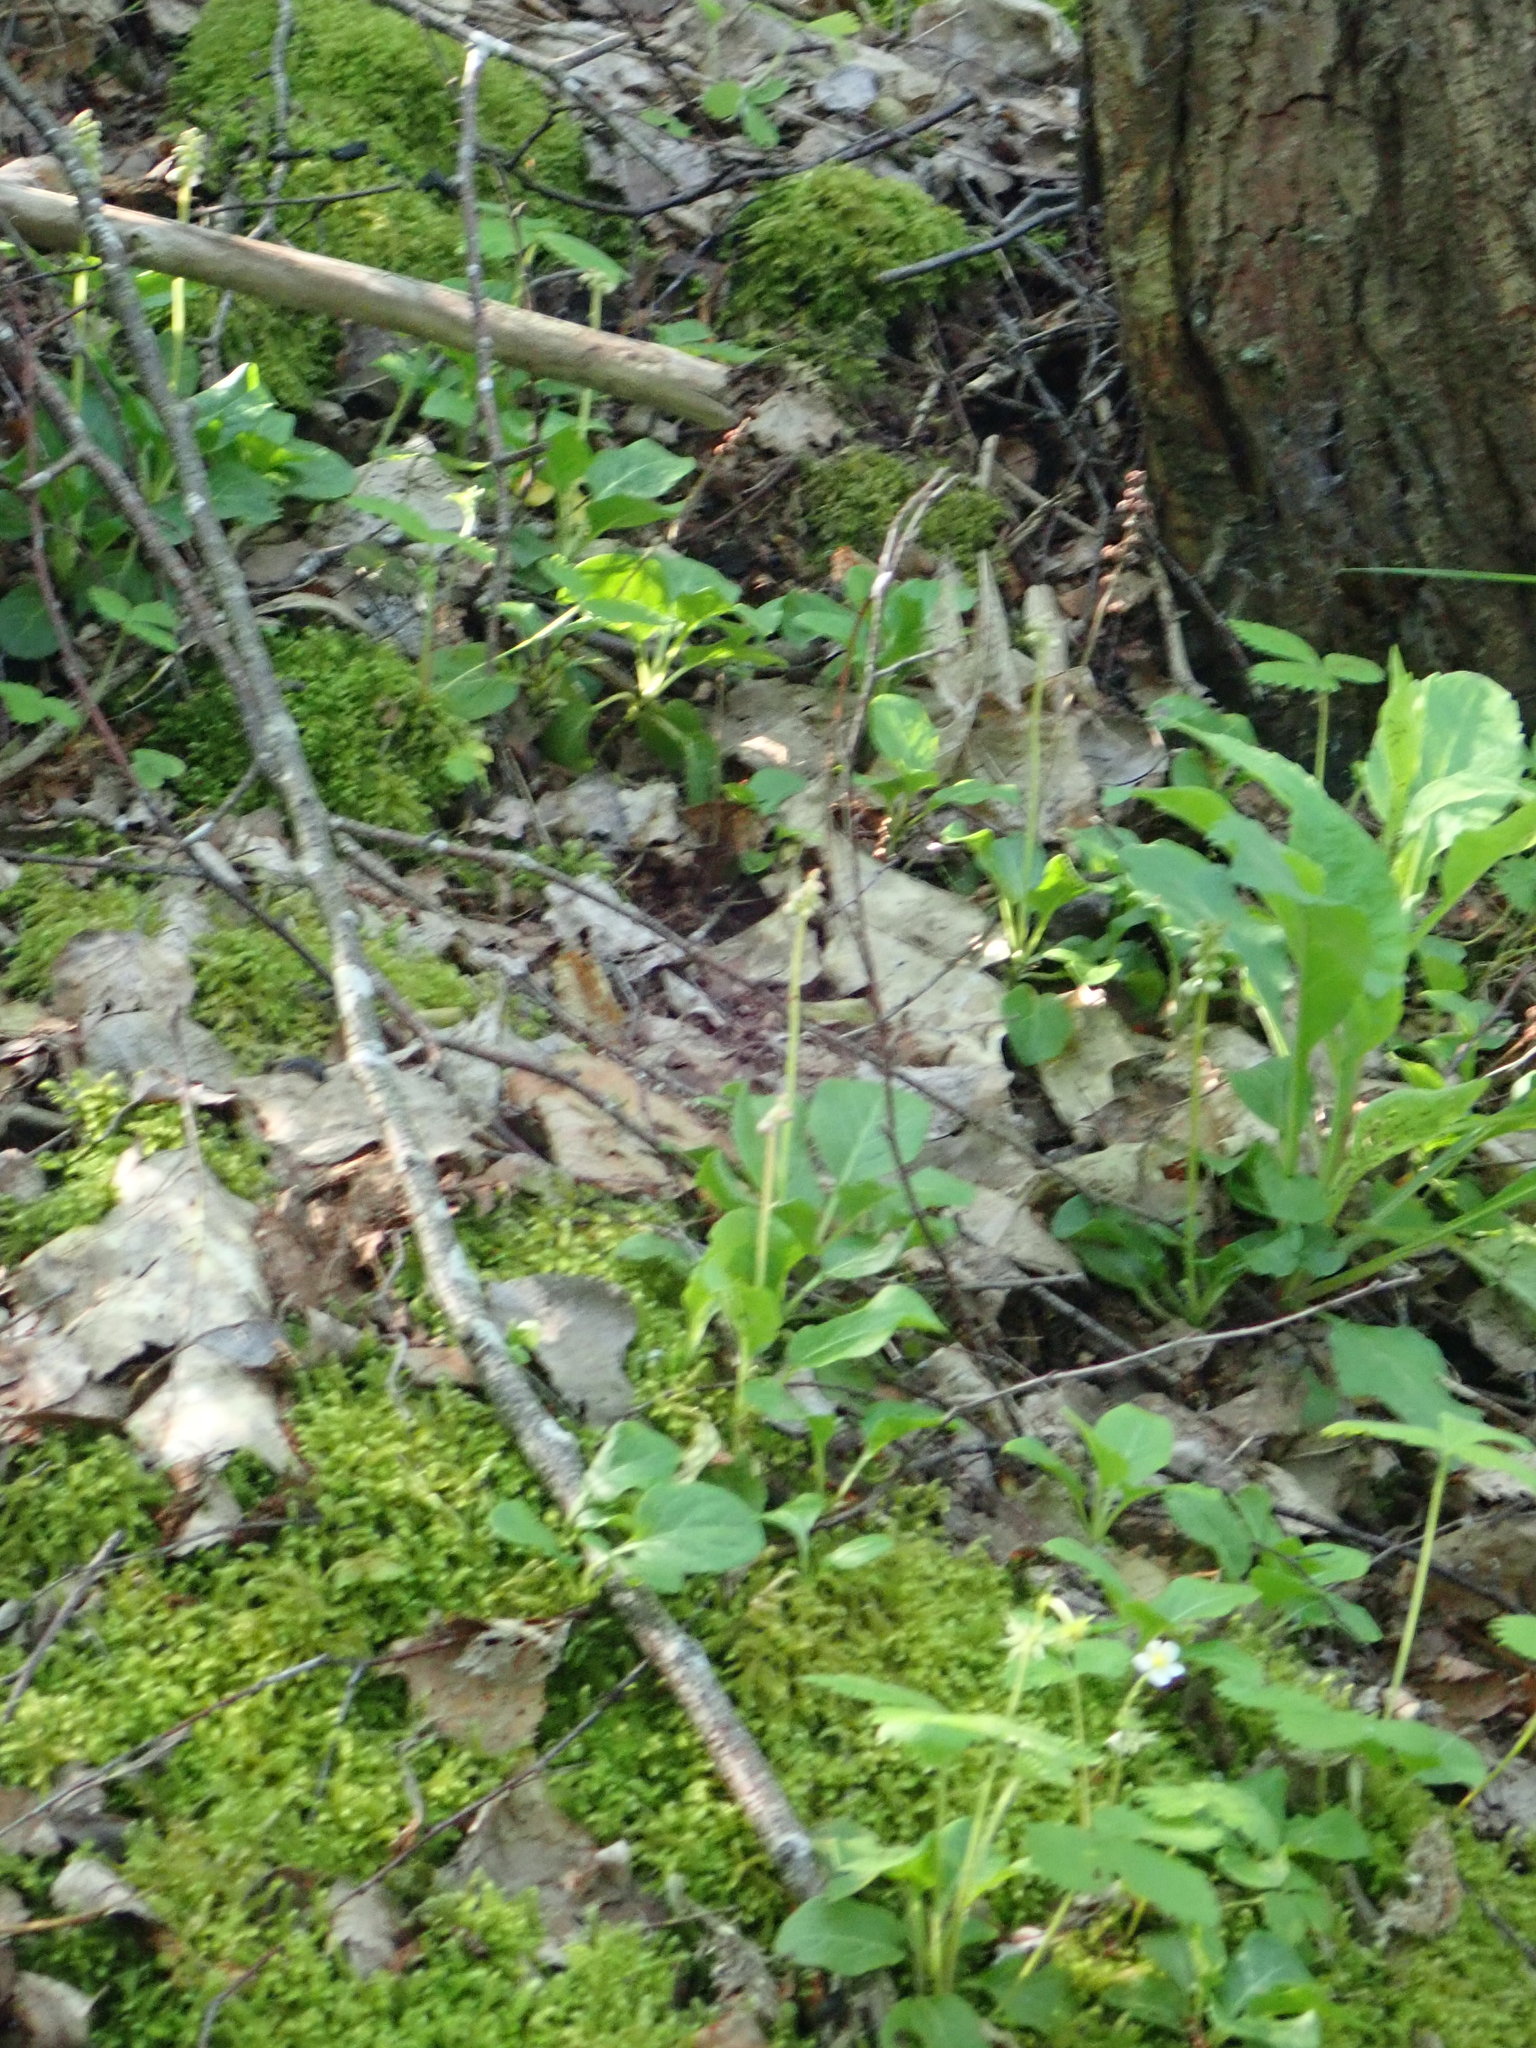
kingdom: Plantae
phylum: Tracheophyta
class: Magnoliopsida
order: Ericales
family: Ericaceae
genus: Pyrola
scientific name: Pyrola minor
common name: Common wintergreen
